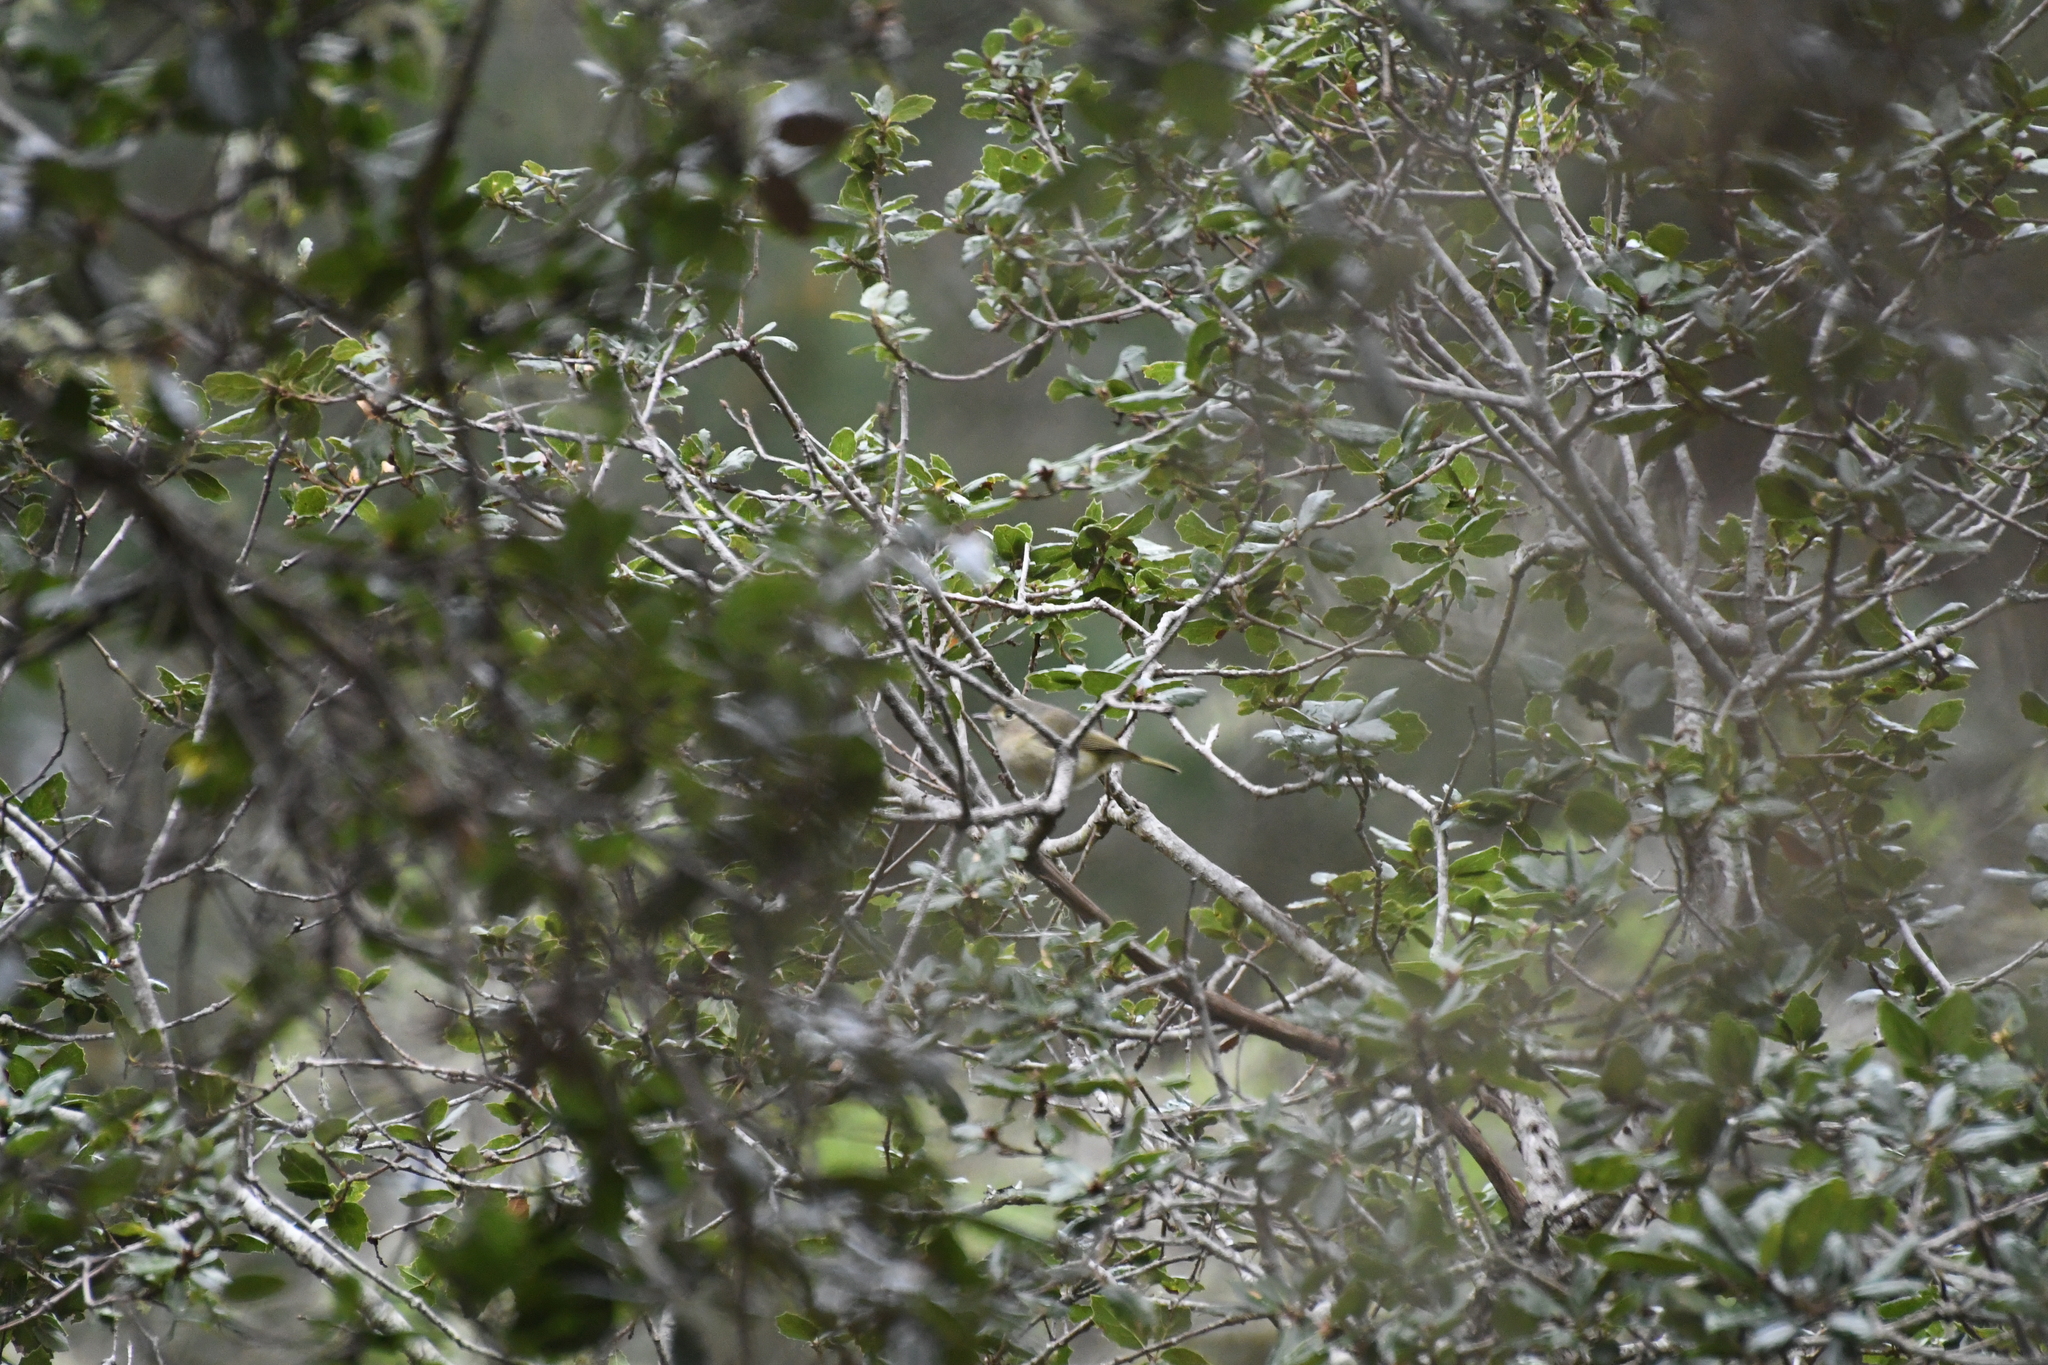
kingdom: Animalia
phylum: Chordata
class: Aves
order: Passeriformes
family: Vireonidae
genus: Vireo
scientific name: Vireo huttoni
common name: Hutton's vireo
